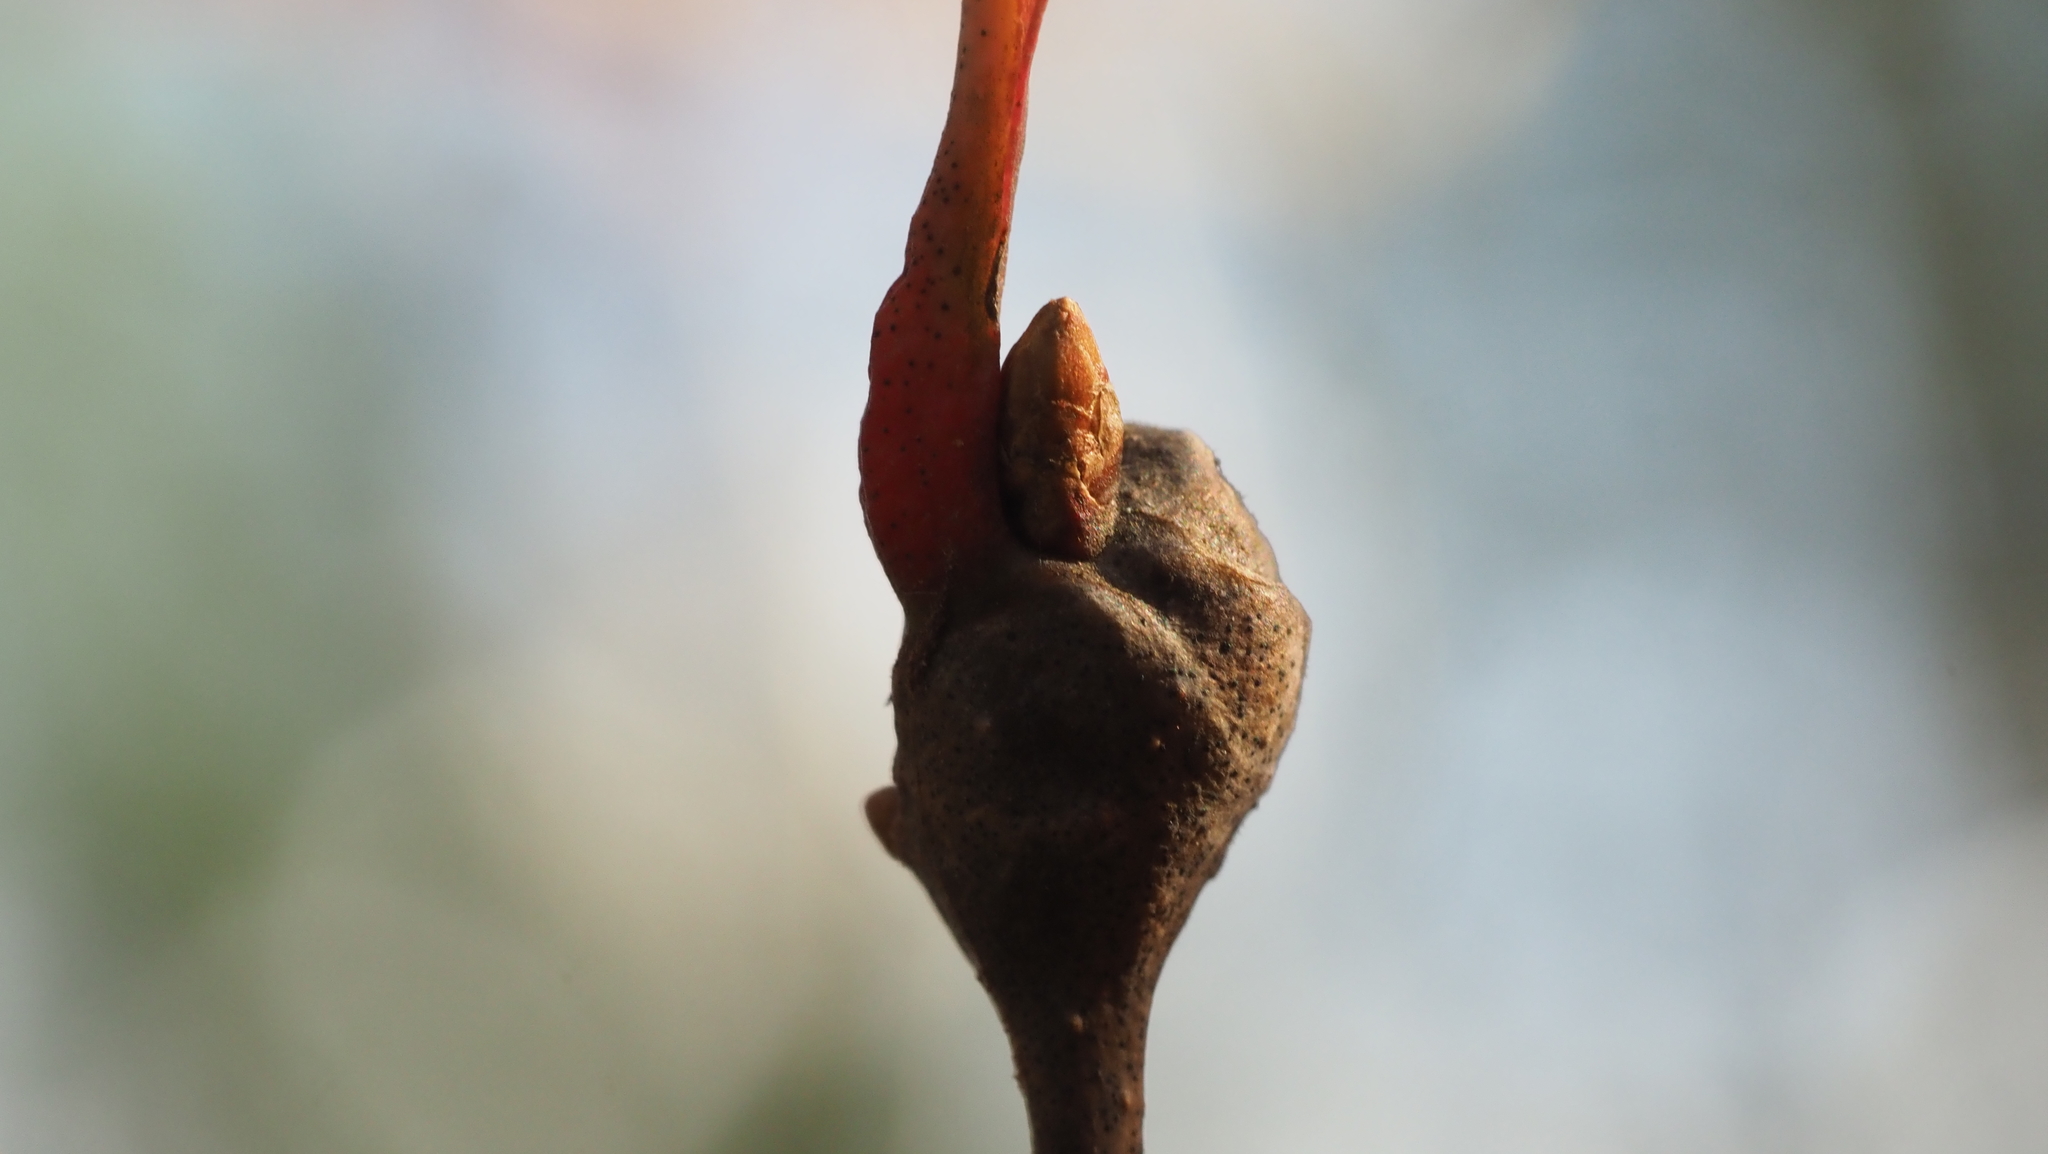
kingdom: Animalia
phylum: Arthropoda
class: Insecta
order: Hymenoptera
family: Cynipidae
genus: Callirhytis
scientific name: Callirhytis clavula
